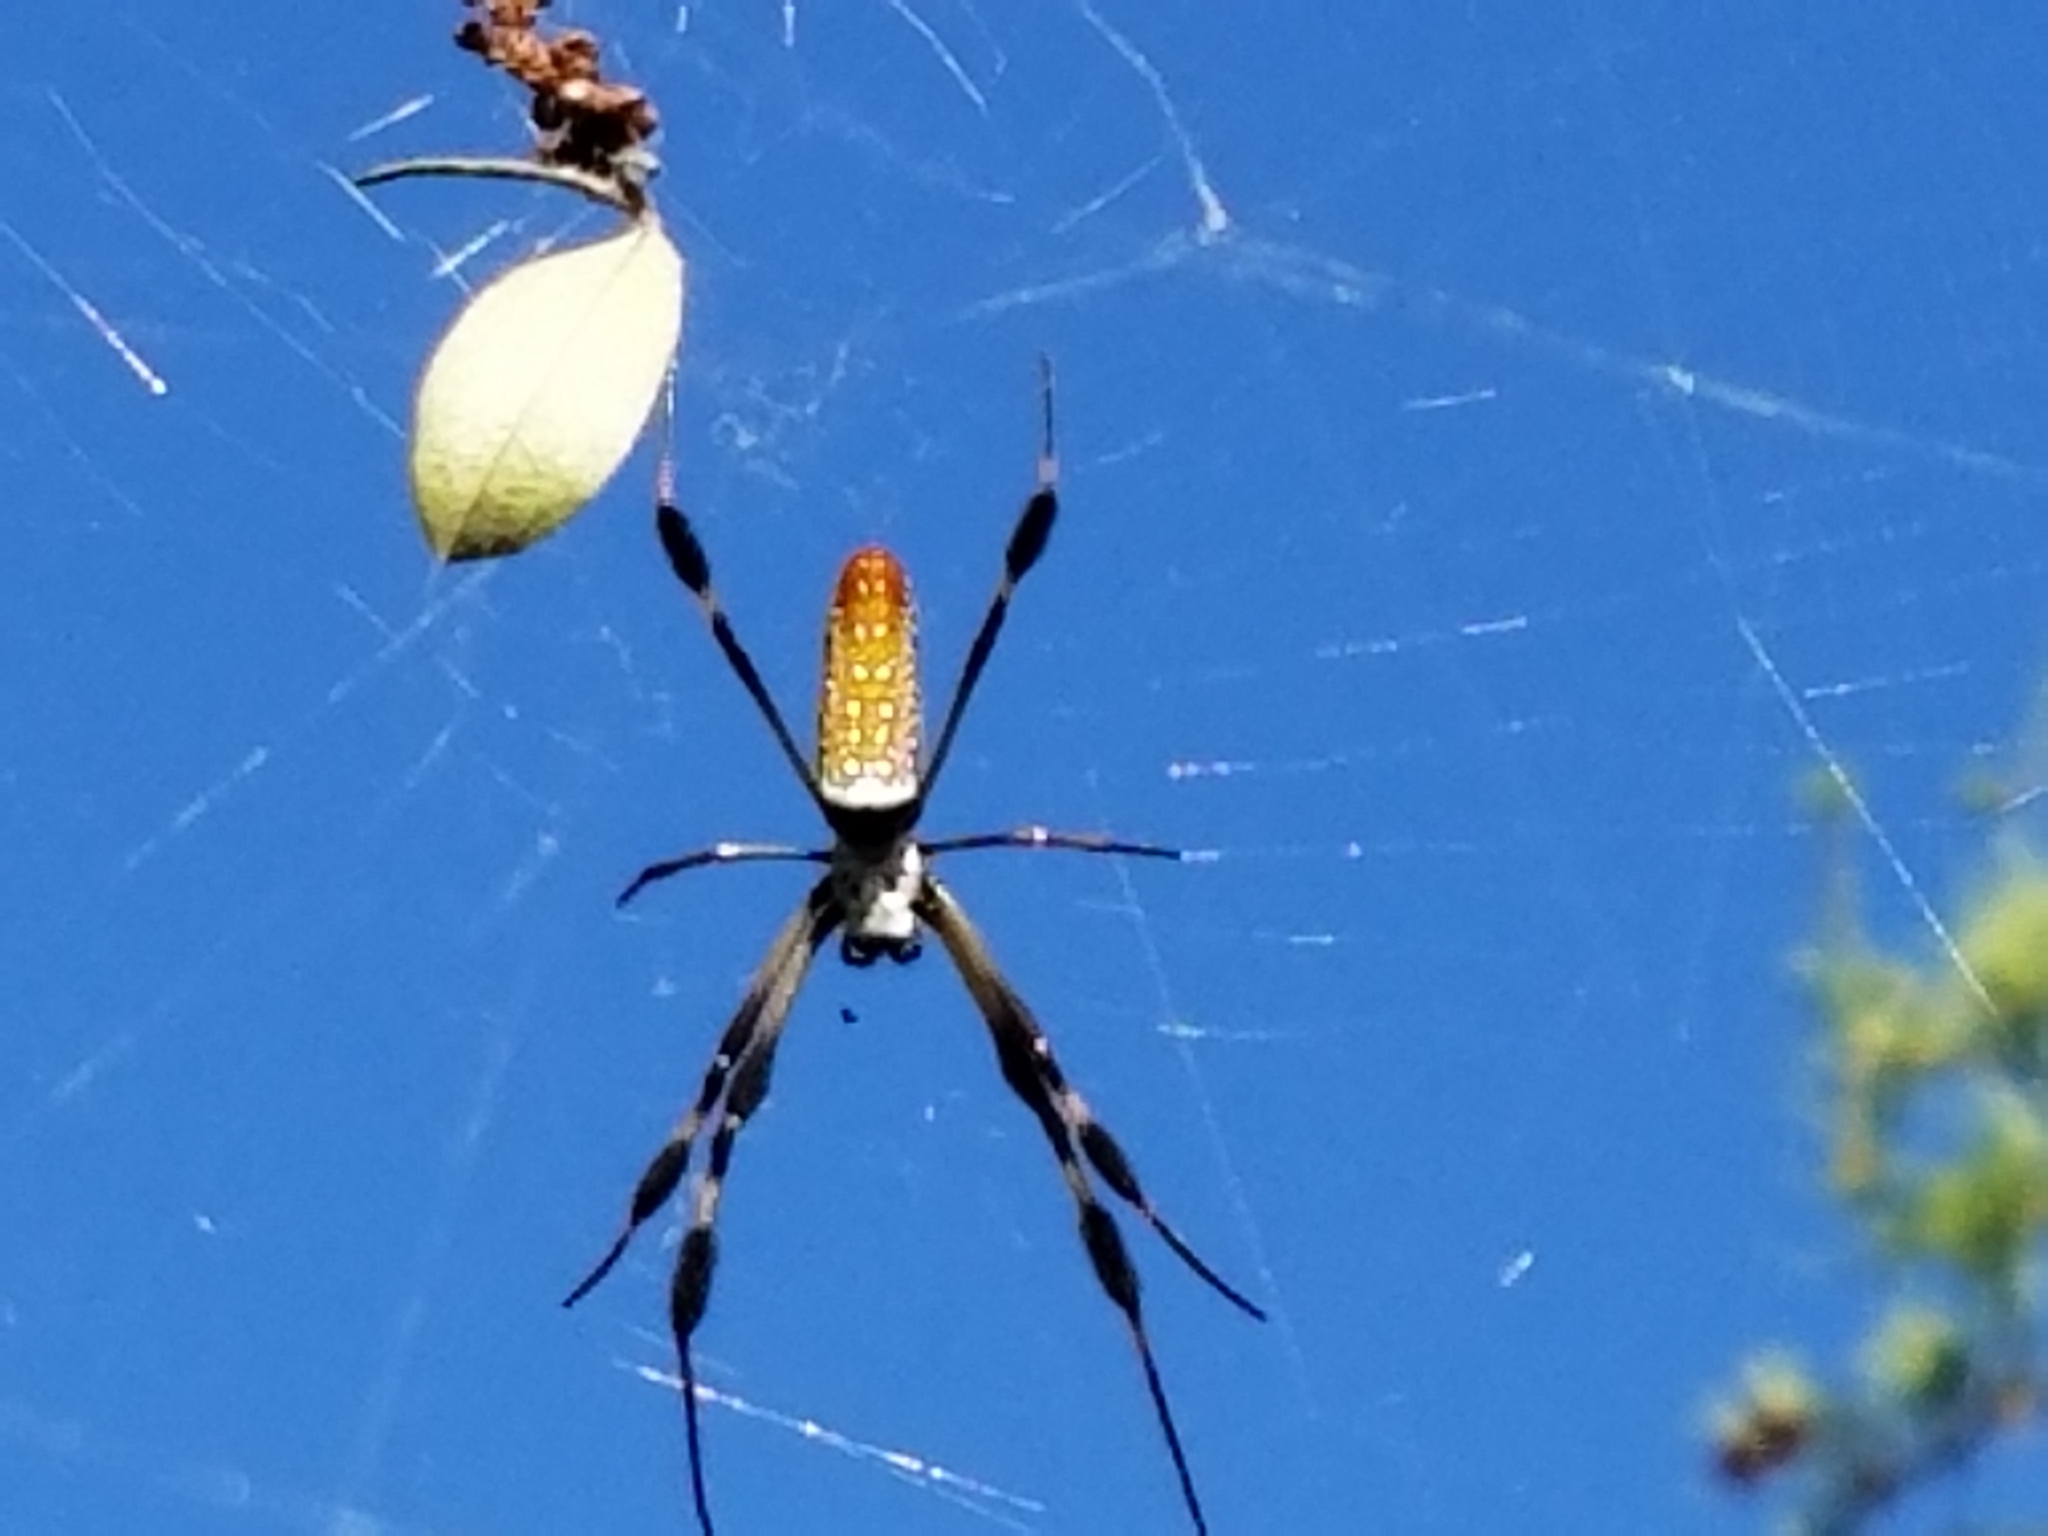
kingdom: Animalia
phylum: Arthropoda
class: Arachnida
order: Araneae
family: Araneidae
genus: Trichonephila
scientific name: Trichonephila clavipes
